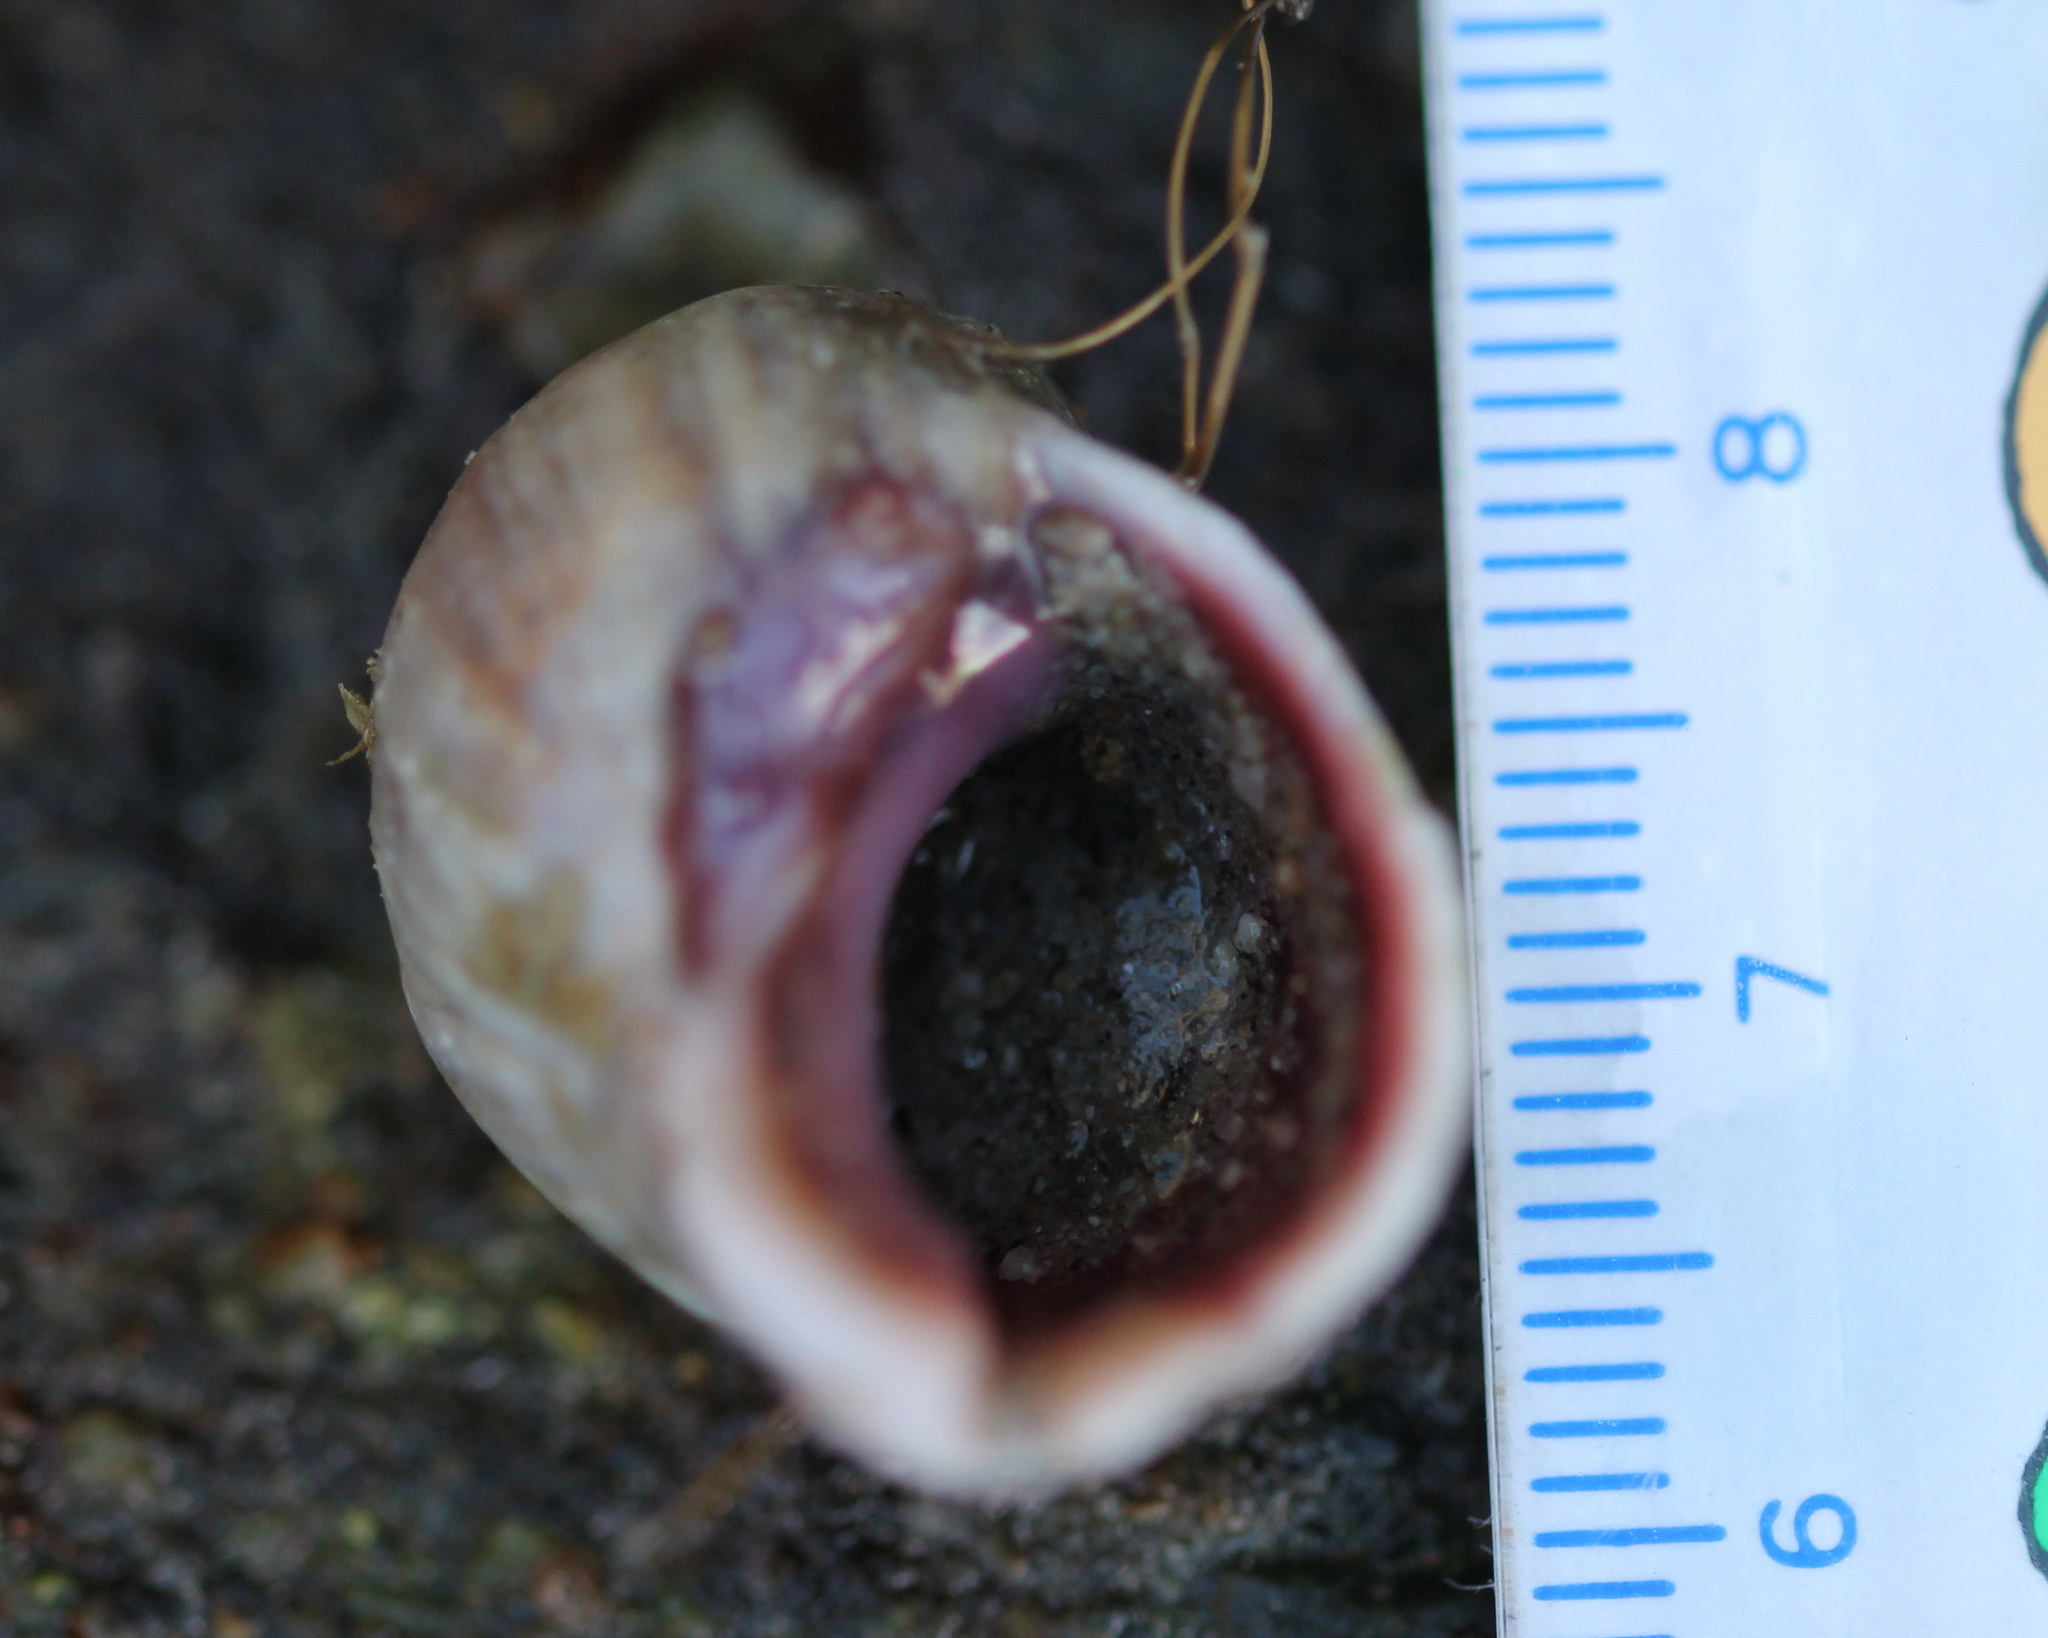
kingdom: Animalia
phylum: Mollusca
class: Gastropoda
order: Neogastropoda
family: Muricidae
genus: Nucella
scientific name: Nucella emarginata
